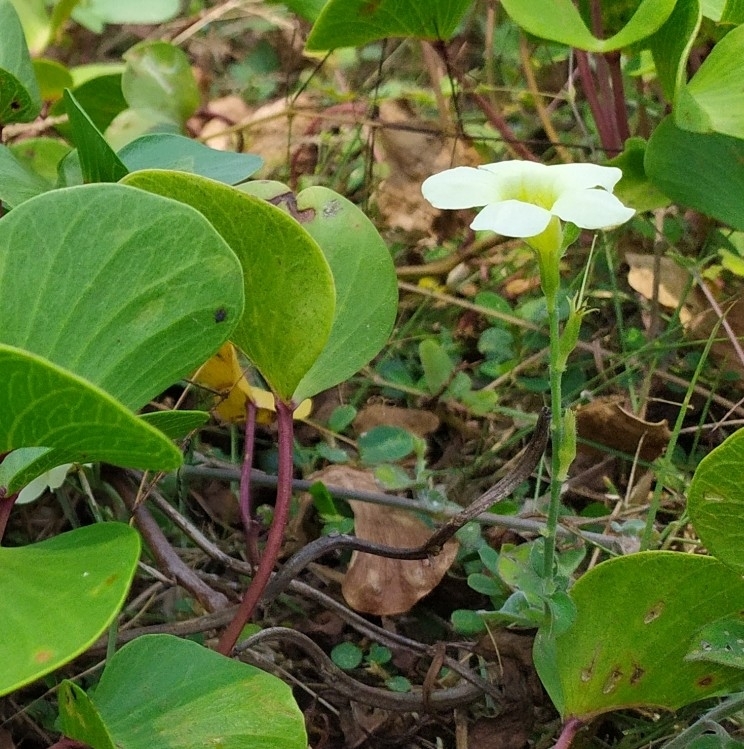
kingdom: Plantae
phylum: Tracheophyta
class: Magnoliopsida
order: Lamiales
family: Acanthaceae
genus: Asystasia
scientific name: Asystasia gangetica
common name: Chinese violet
